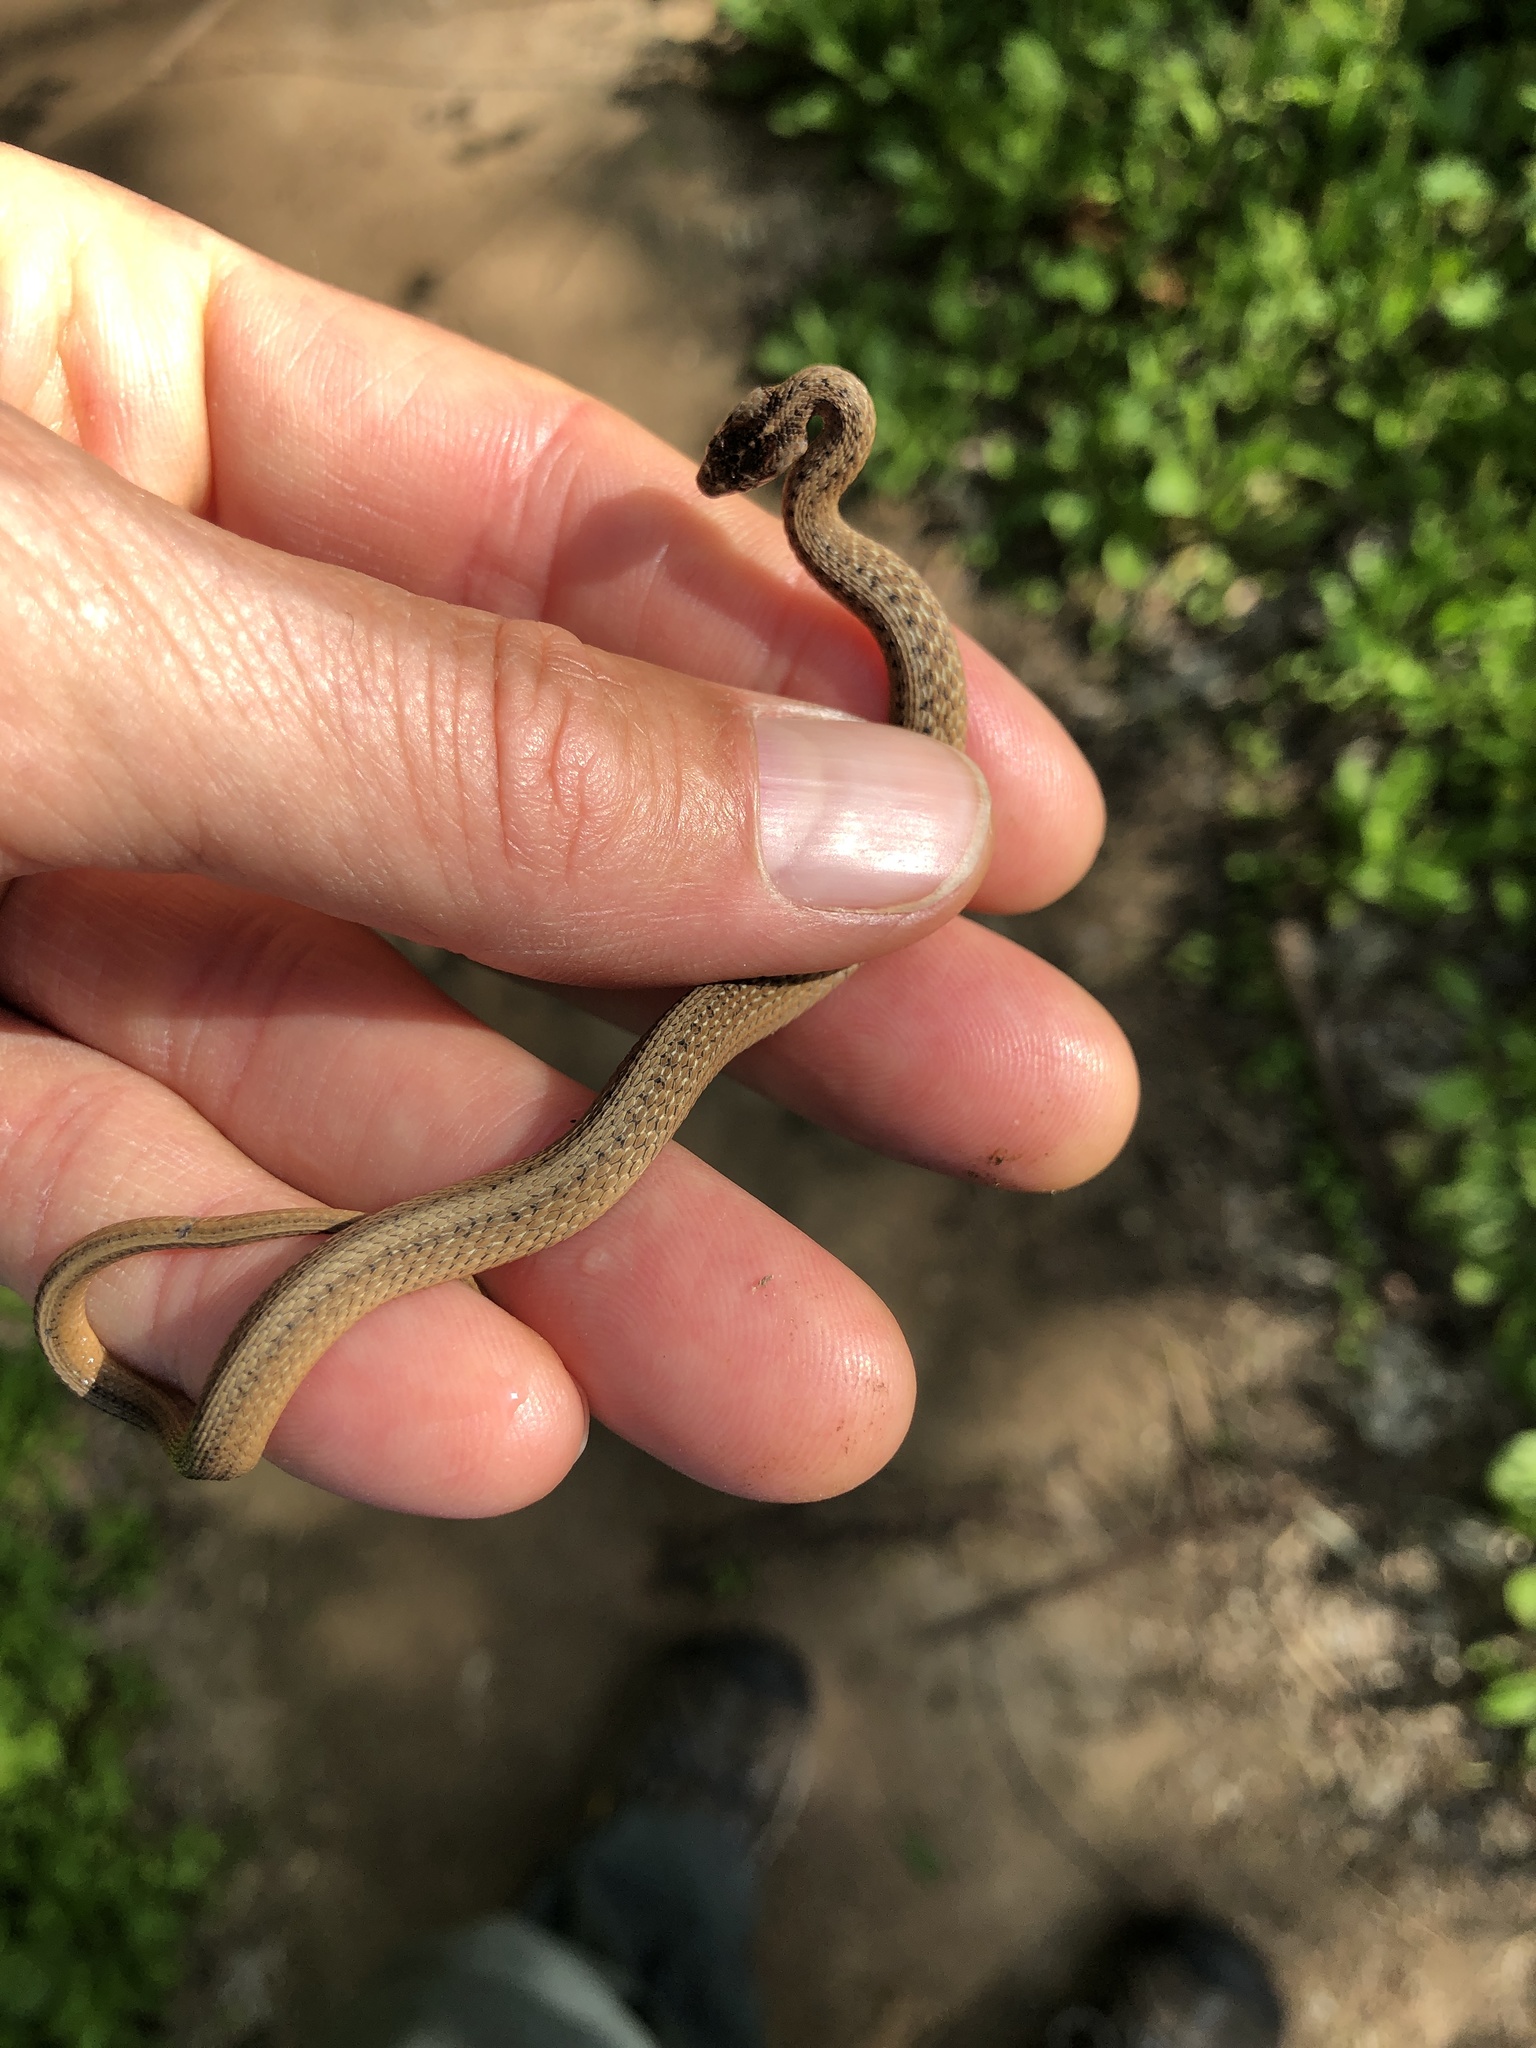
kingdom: Animalia
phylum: Chordata
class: Squamata
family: Colubridae
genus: Storeria
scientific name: Storeria dekayi
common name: (dekay’s) brown snake
